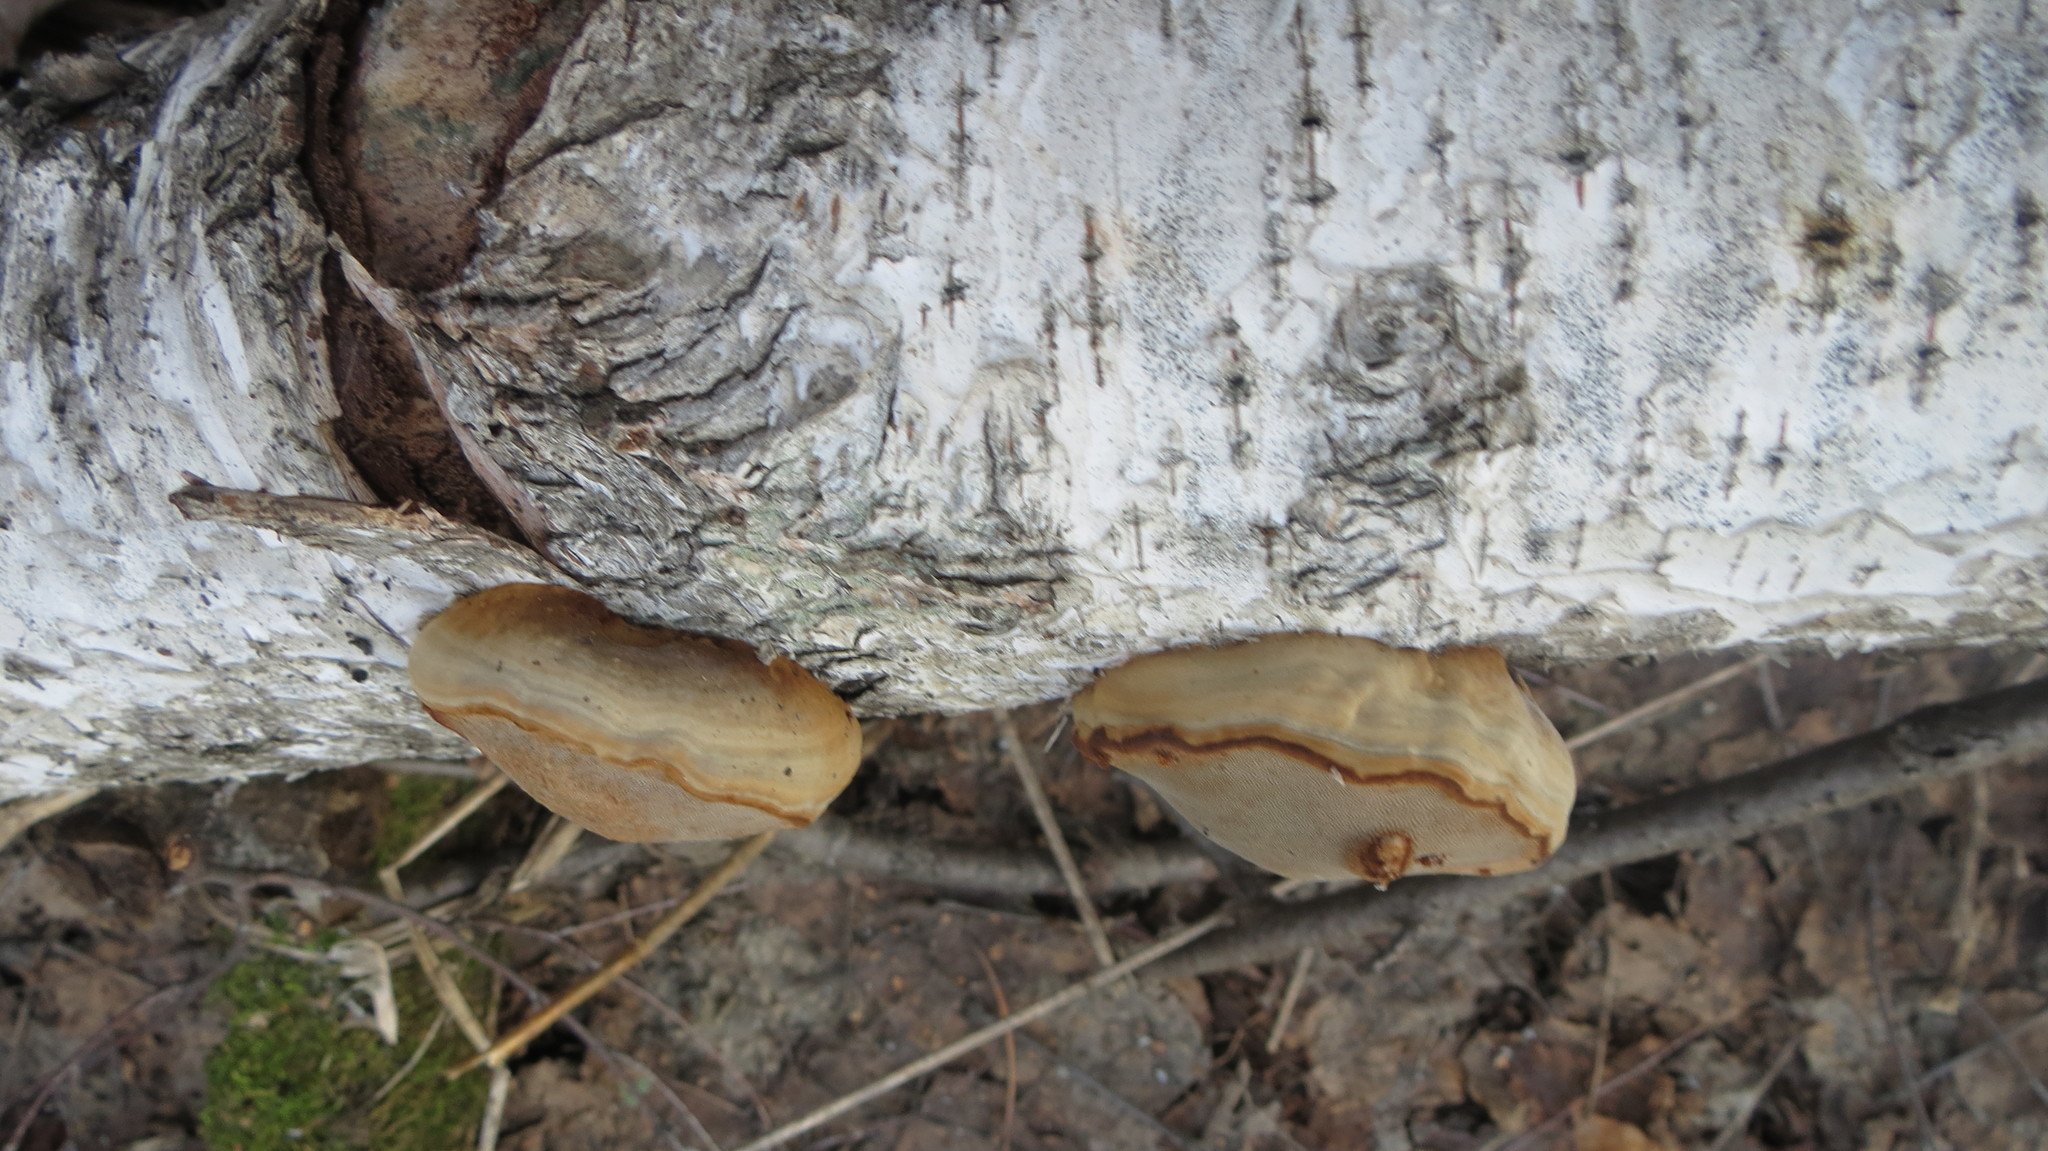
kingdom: Fungi
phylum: Basidiomycota
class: Agaricomycetes
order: Polyporales
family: Polyporaceae
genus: Fomes
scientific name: Fomes fomentarius
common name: Hoof fungus
